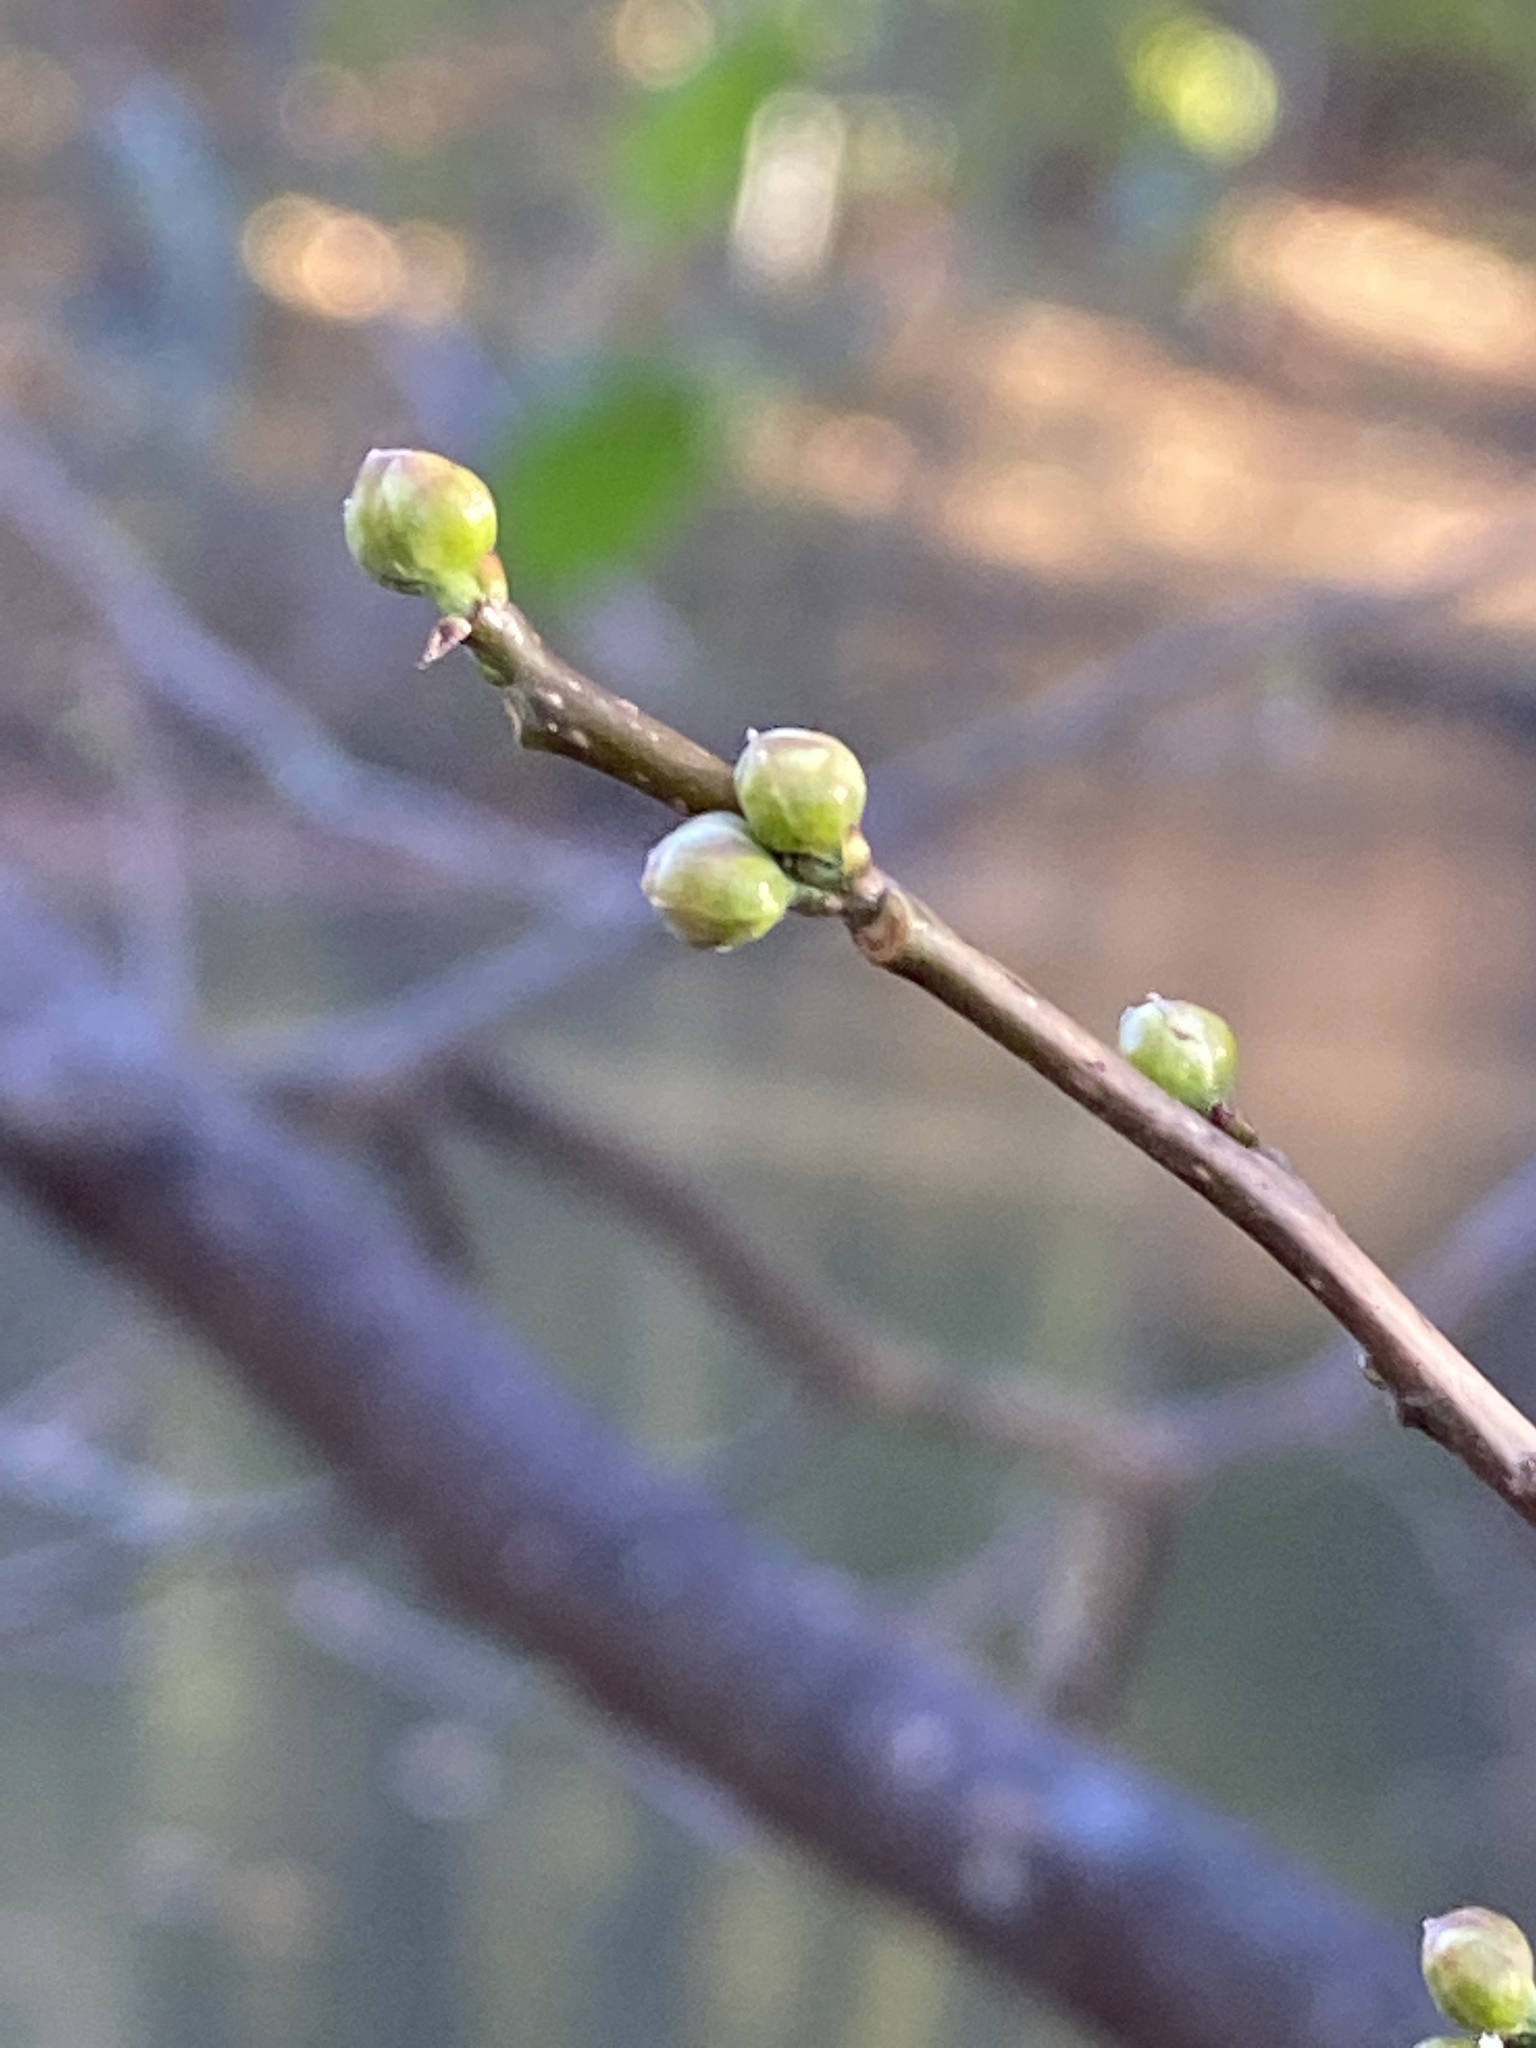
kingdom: Plantae
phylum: Tracheophyta
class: Magnoliopsida
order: Laurales
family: Lauraceae
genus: Lindera
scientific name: Lindera benzoin
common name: Spicebush
